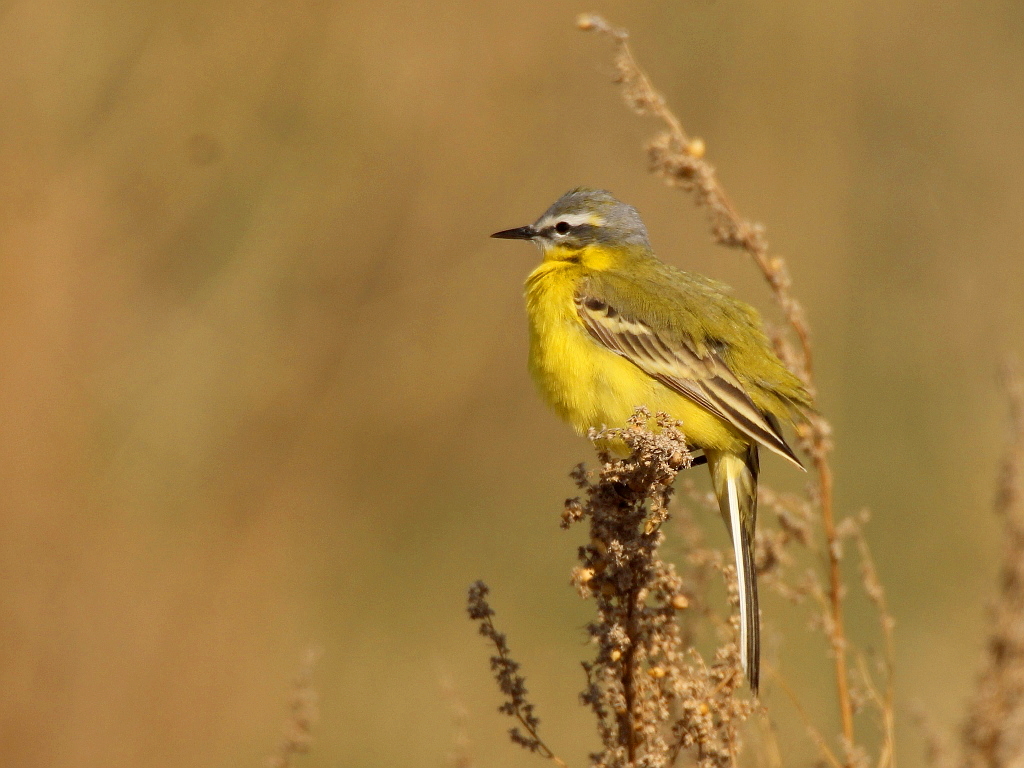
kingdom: Animalia
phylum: Chordata
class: Aves
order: Passeriformes
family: Motacillidae
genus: Motacilla
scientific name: Motacilla flava
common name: Western yellow wagtail
